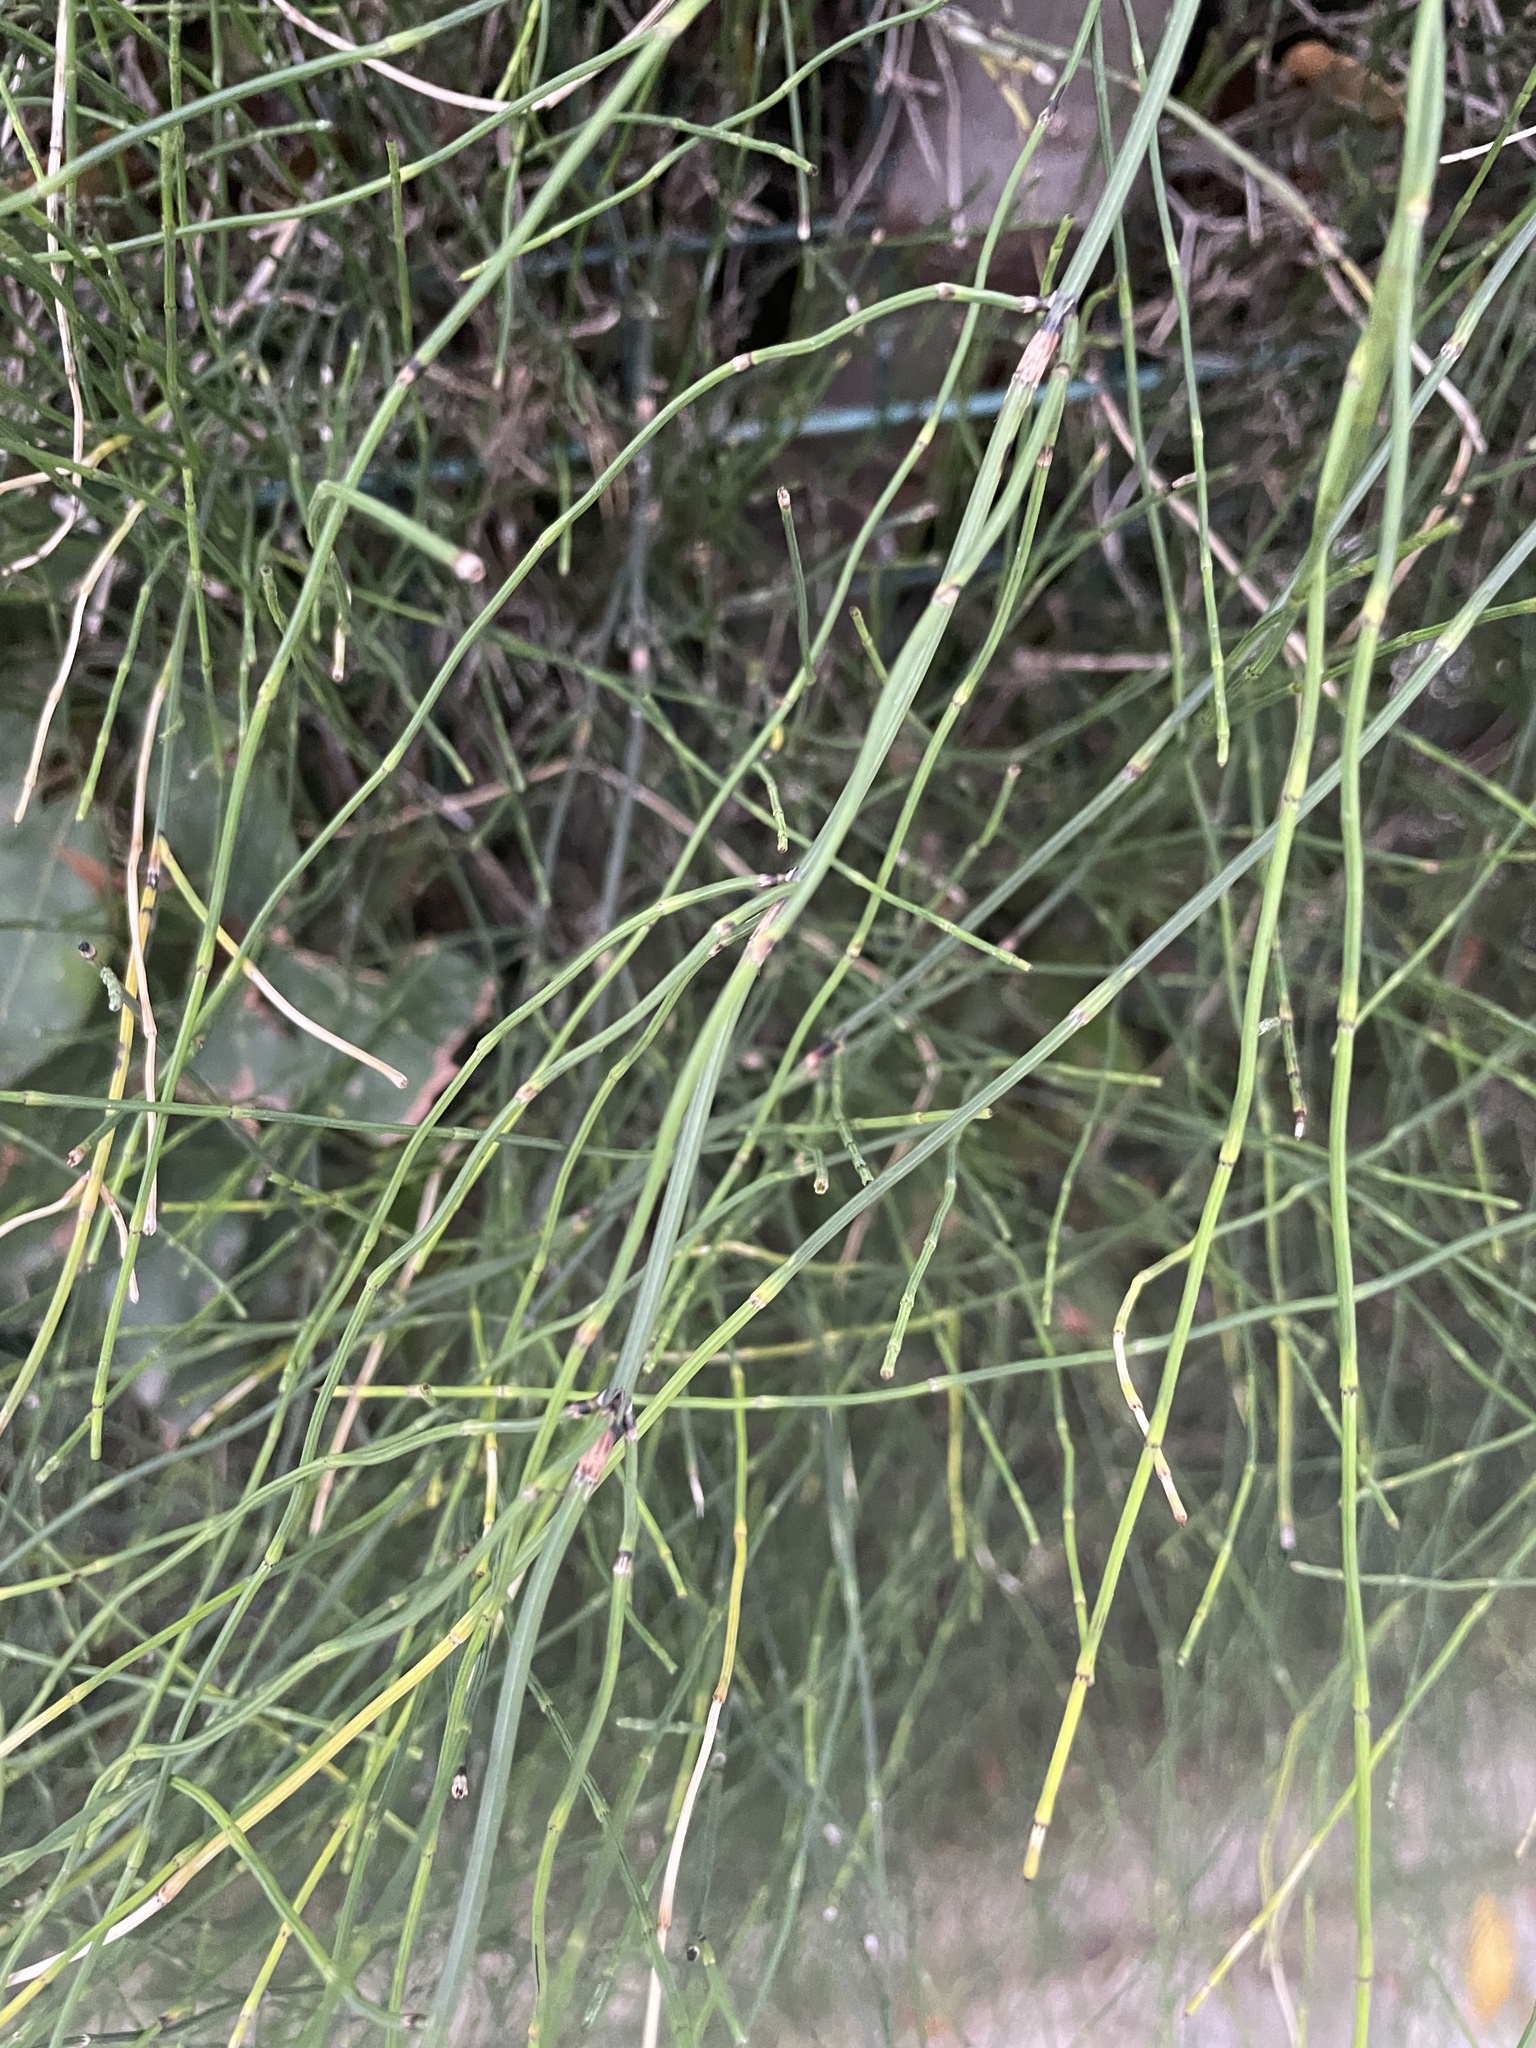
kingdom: Plantae
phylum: Tracheophyta
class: Polypodiopsida
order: Equisetales
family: Equisetaceae
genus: Equisetum
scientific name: Equisetum ramosissimum
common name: Branched horsetail
